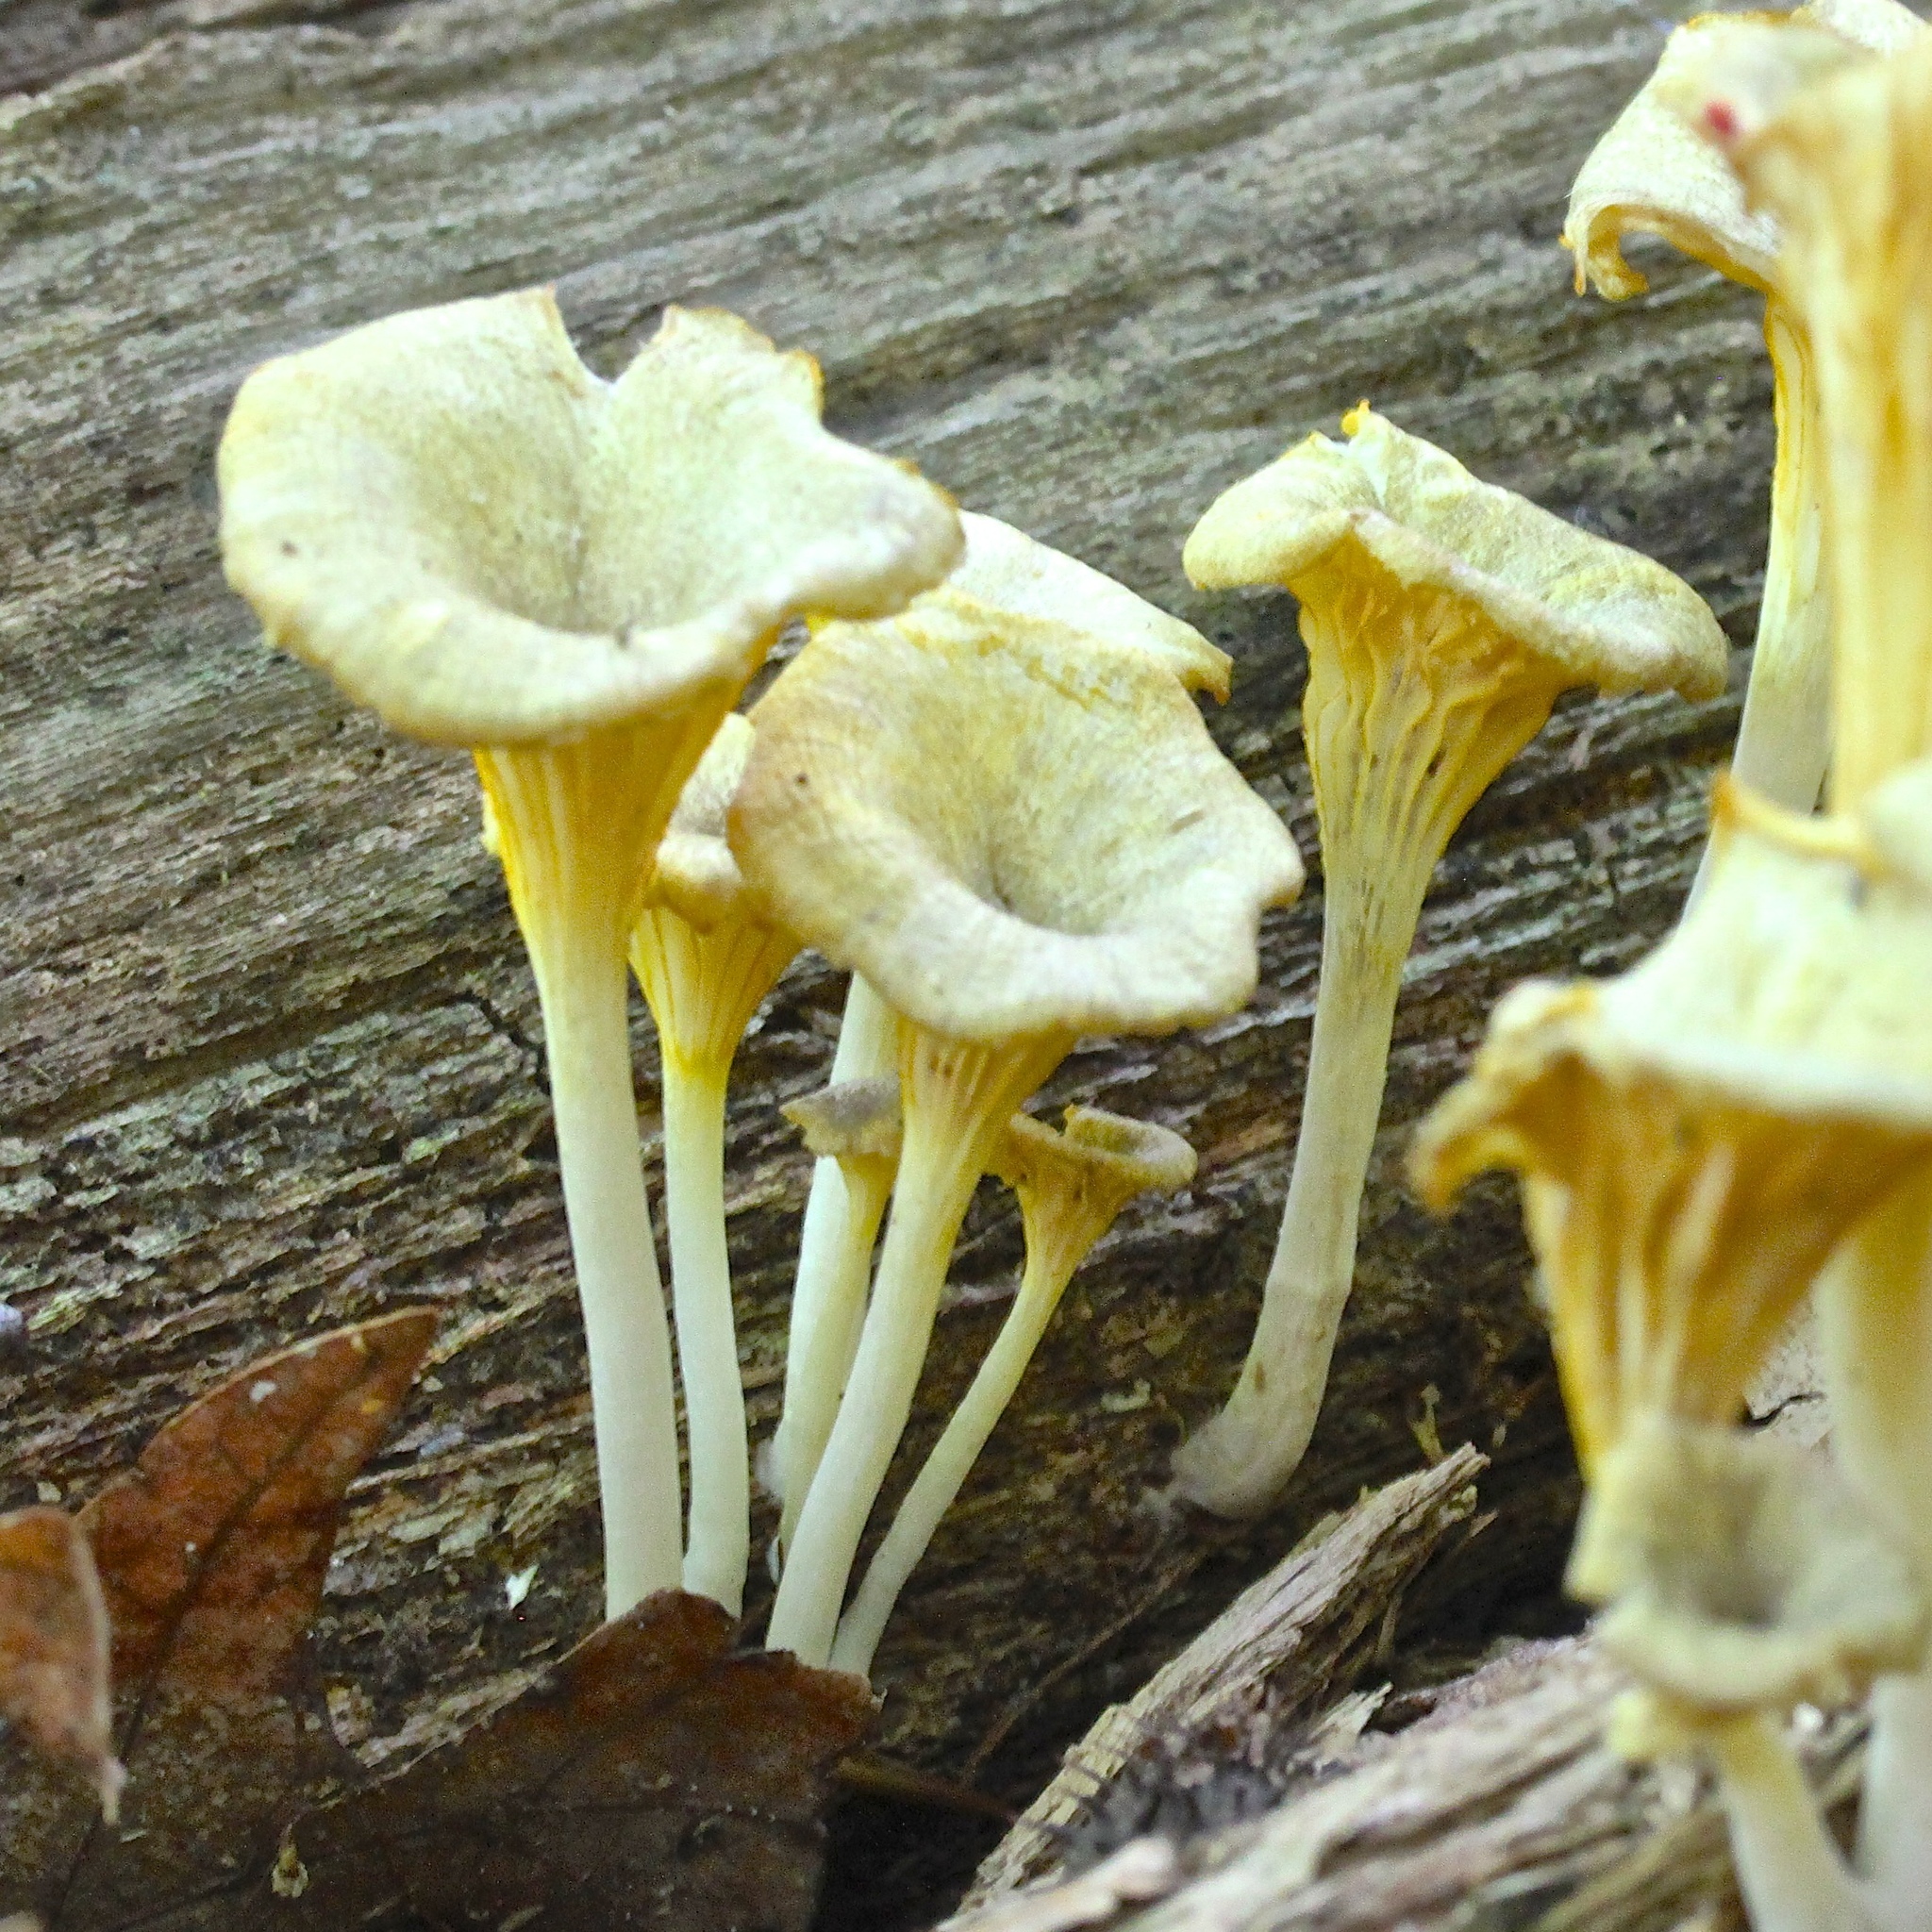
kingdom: Fungi
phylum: Basidiomycota
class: Agaricomycetes
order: Agaricales
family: Marasmiaceae
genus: Gerronema
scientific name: Gerronema strombodes
